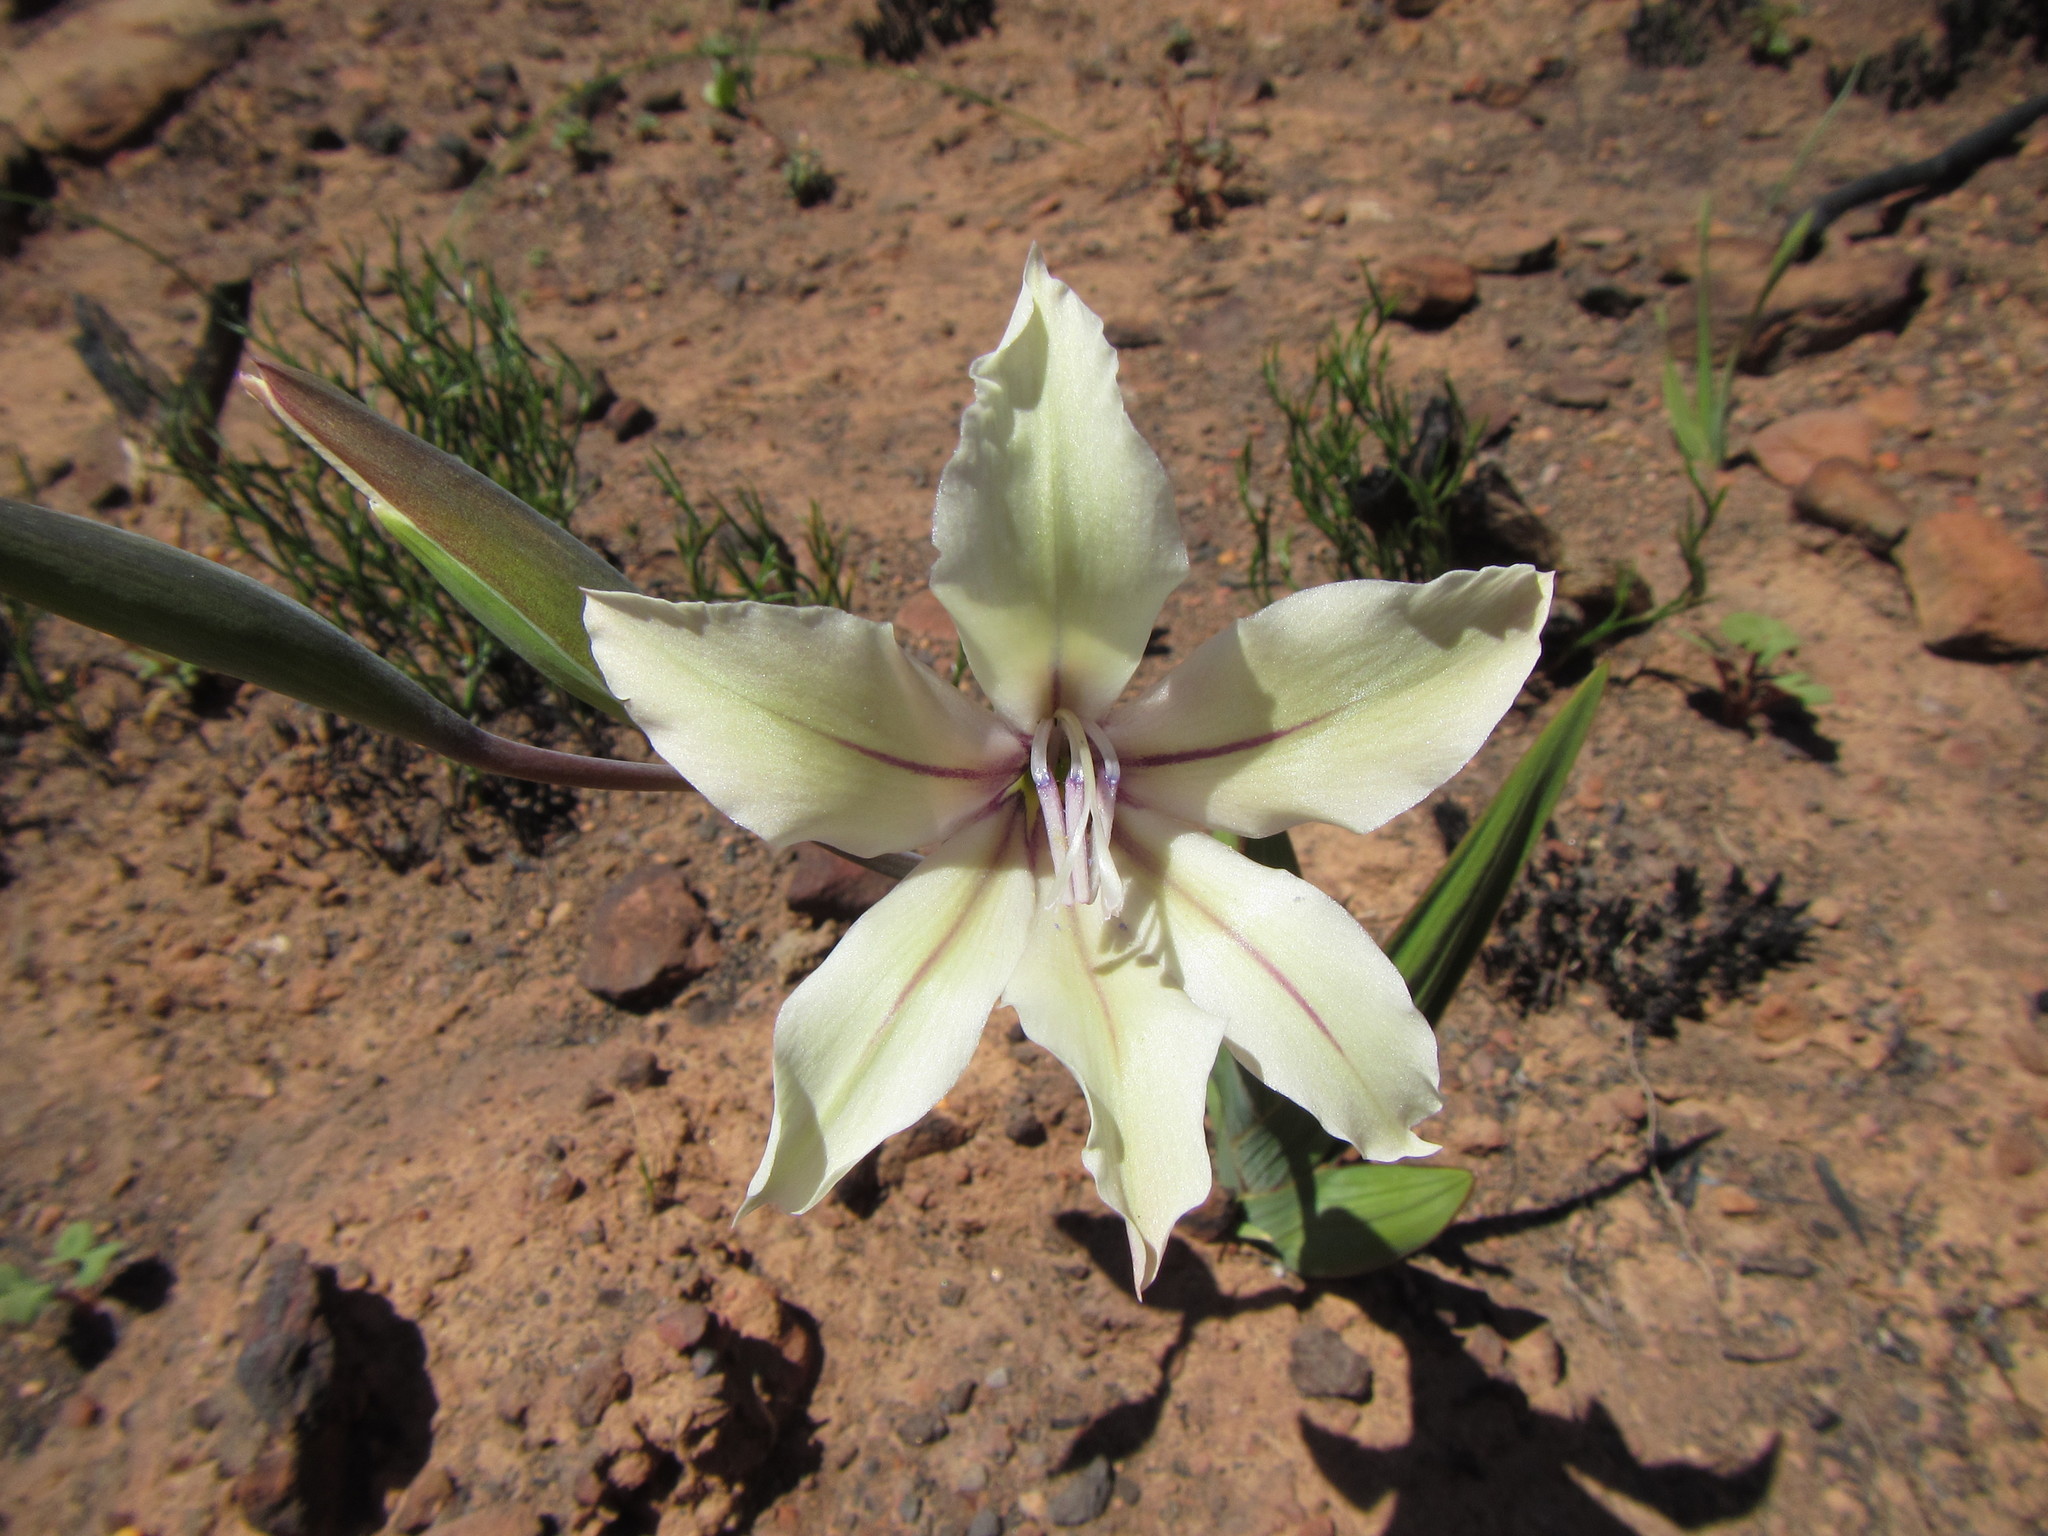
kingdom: Plantae
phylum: Tracheophyta
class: Liliopsida
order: Asparagales
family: Iridaceae
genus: Gladiolus
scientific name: Gladiolus grandiflorus
